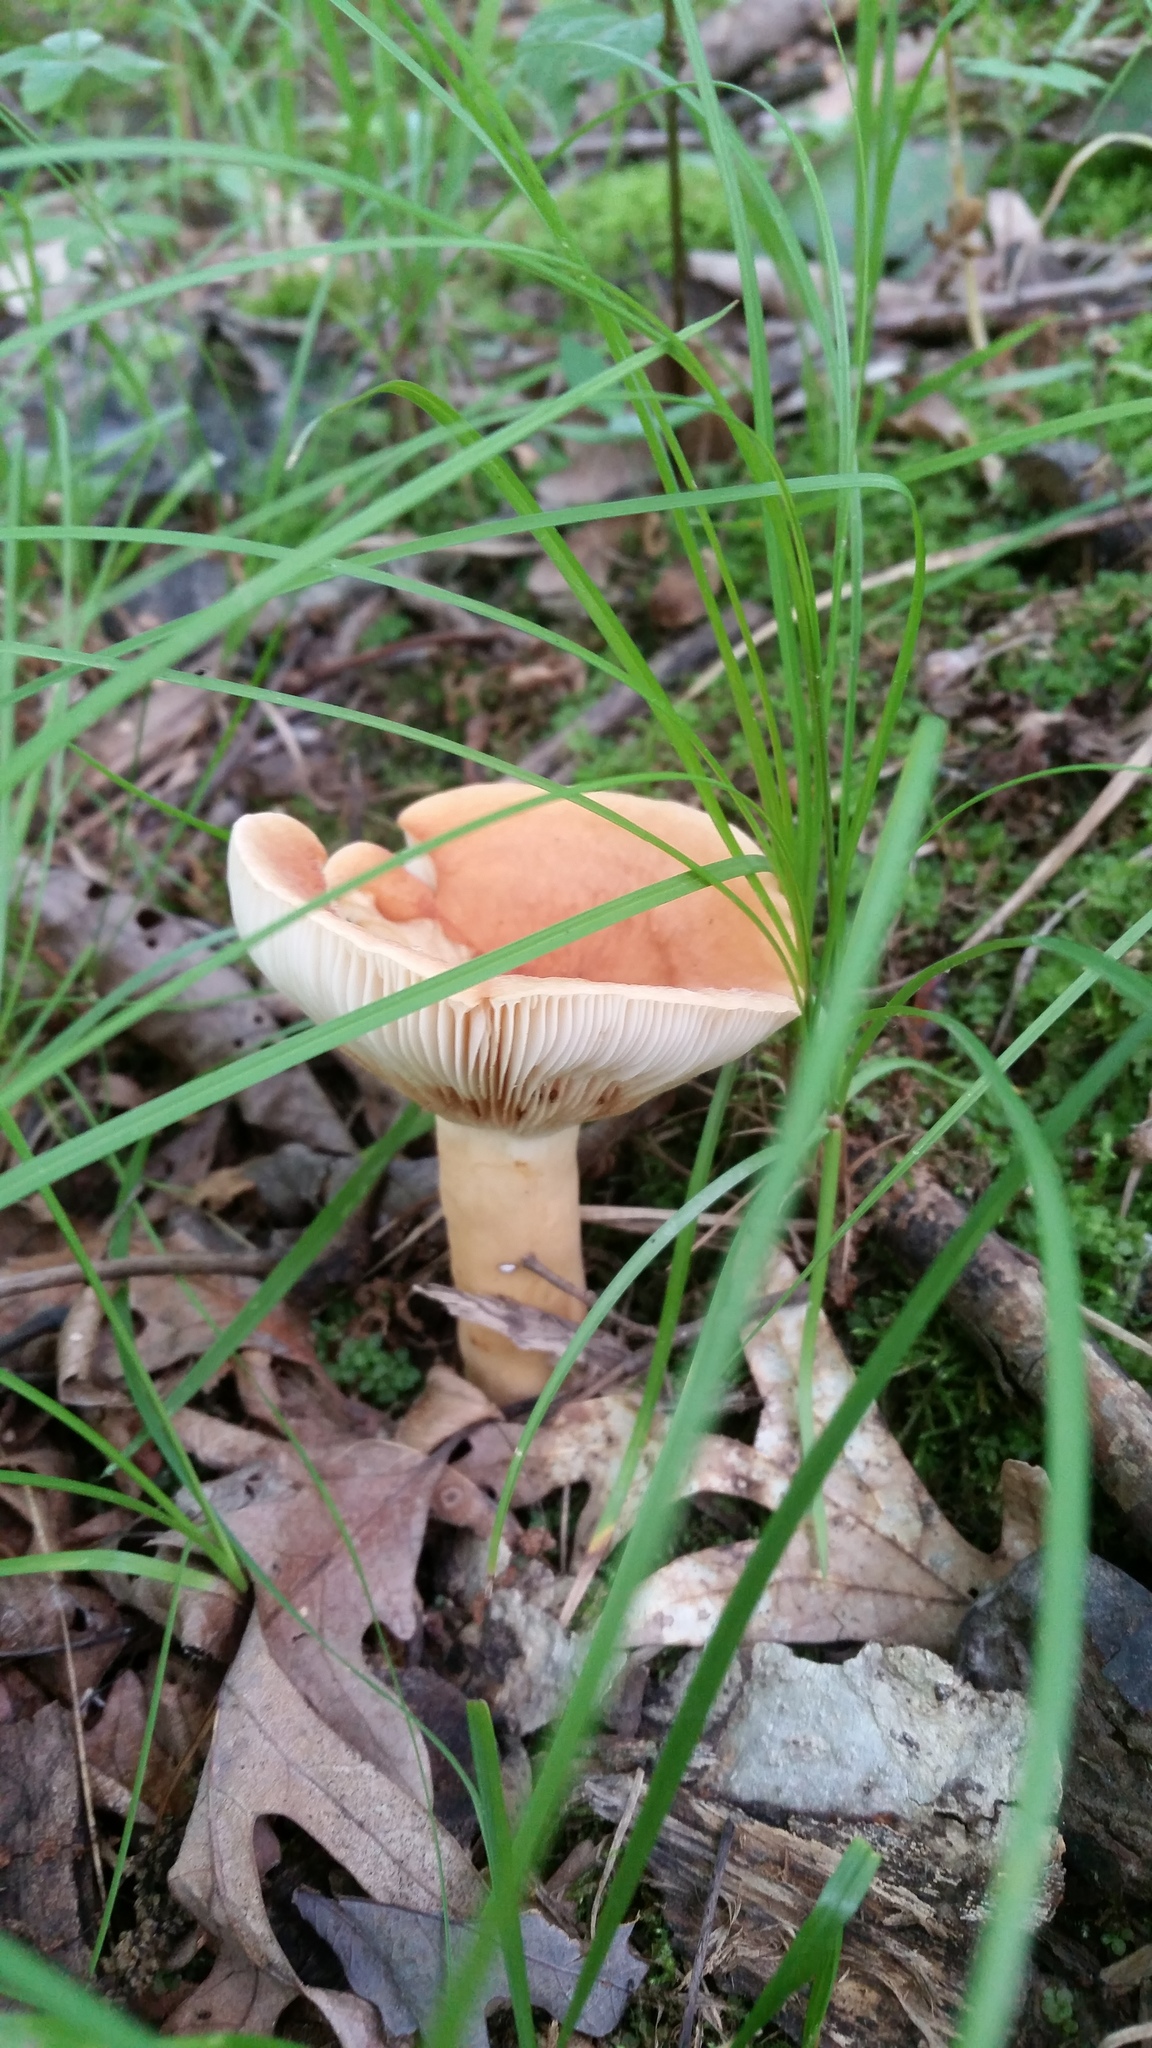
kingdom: Fungi
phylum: Basidiomycota
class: Agaricomycetes
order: Russulales
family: Russulaceae
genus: Lactifluus
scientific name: Lactifluus volemus
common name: Fishy milkcap
